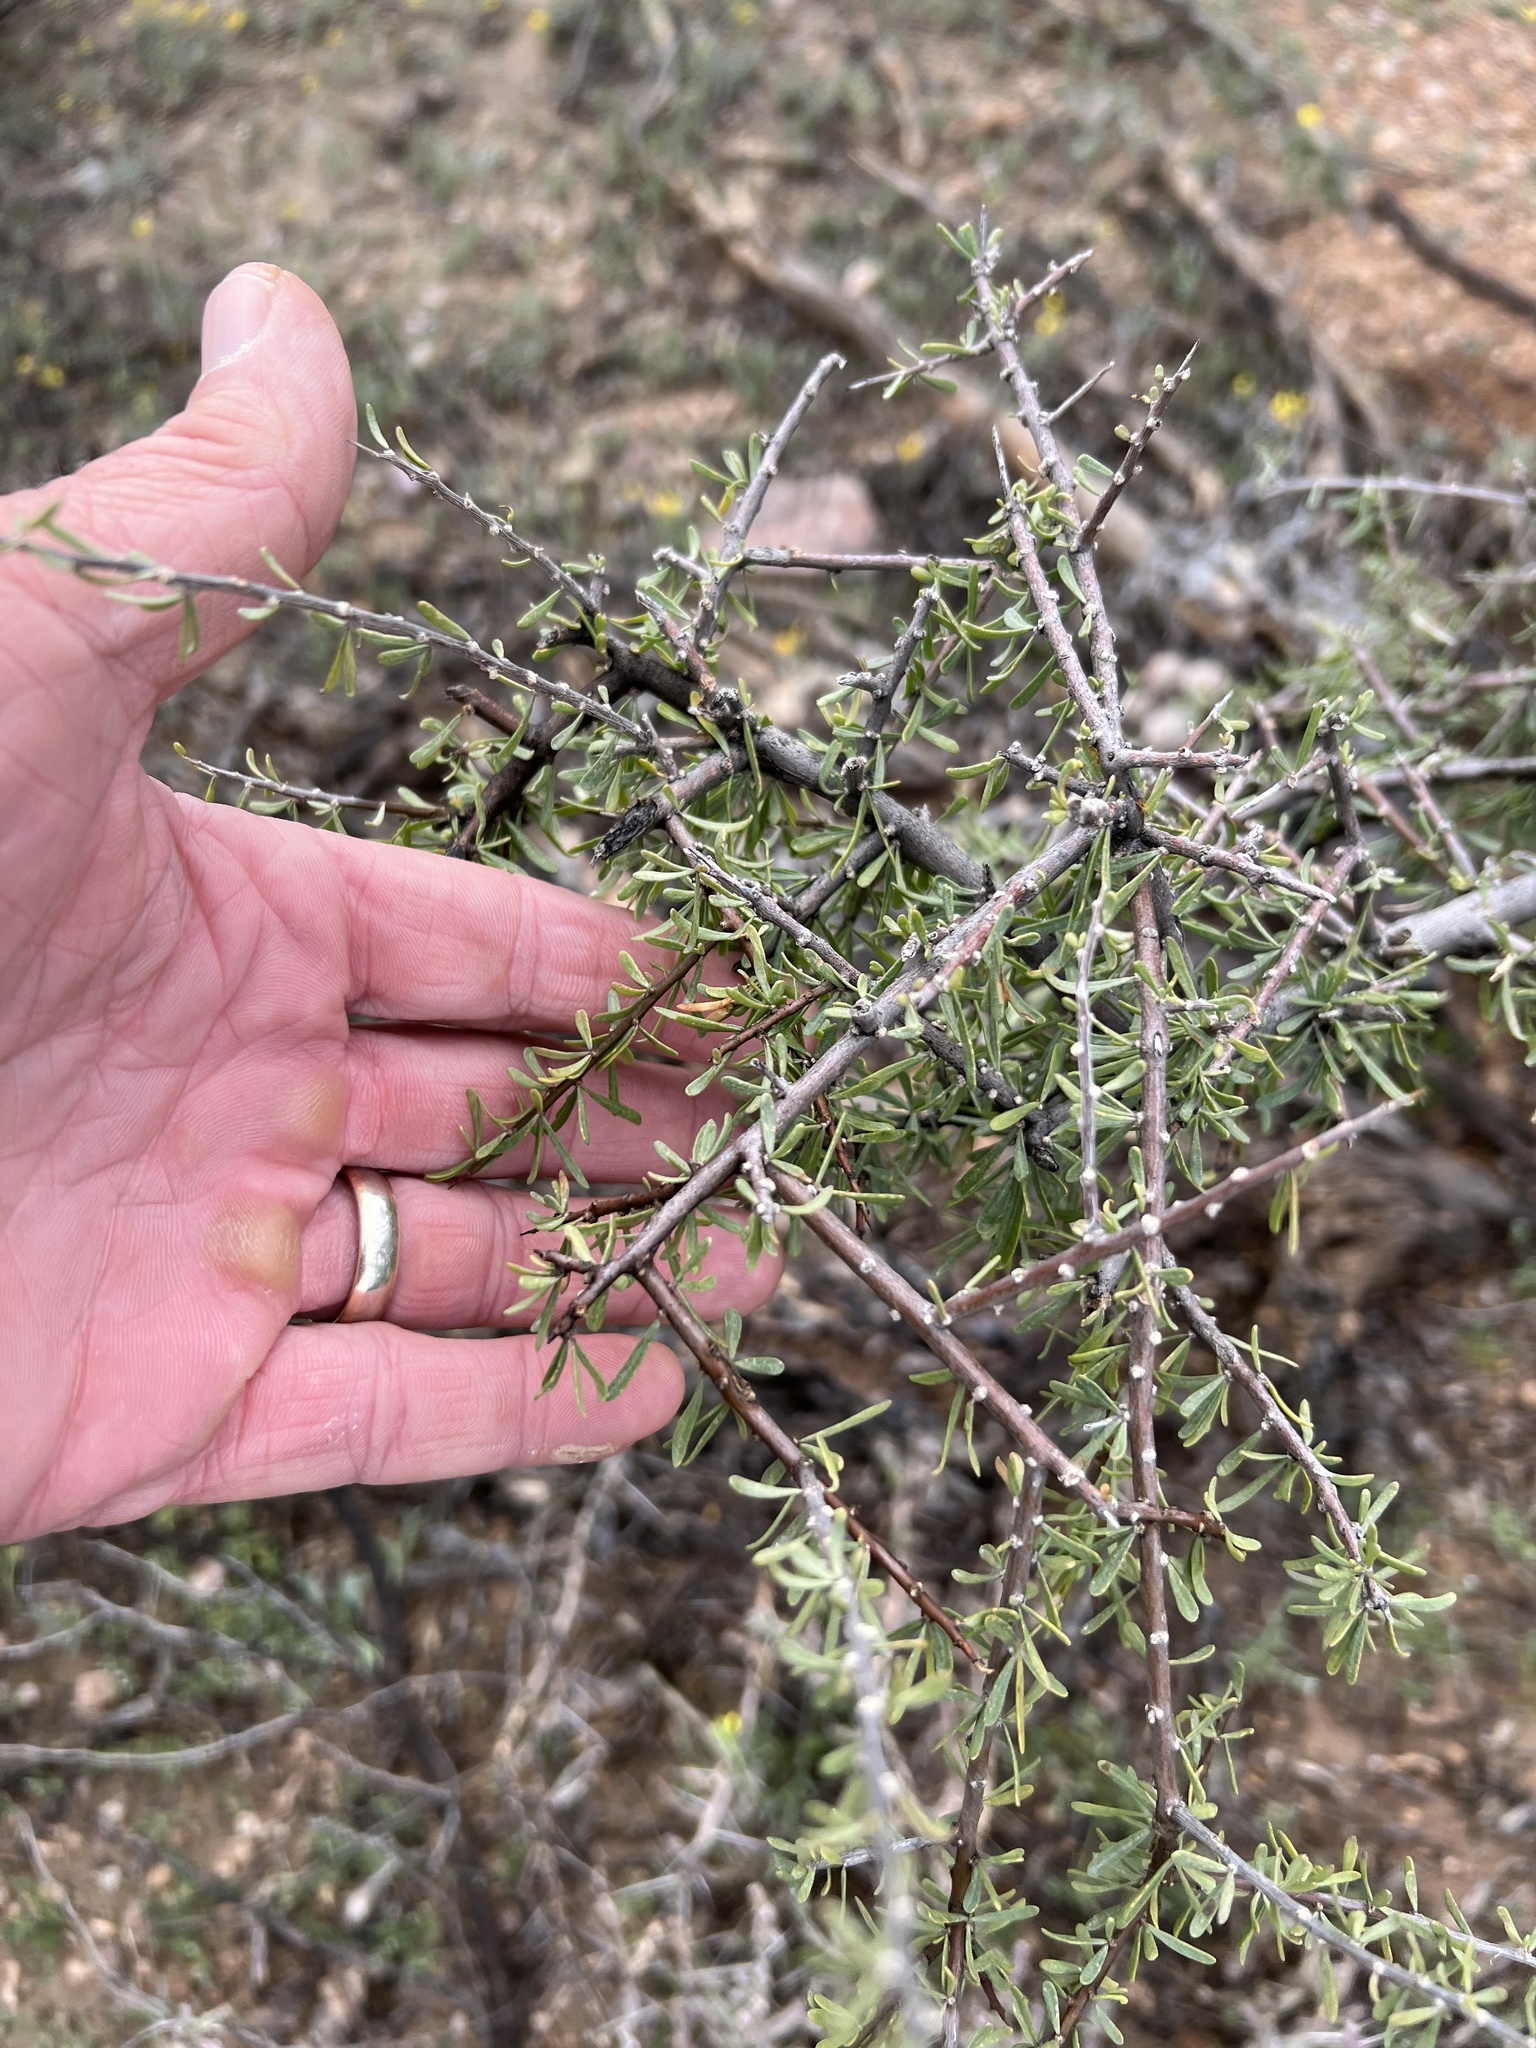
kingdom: Plantae
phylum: Tracheophyta
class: Magnoliopsida
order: Solanales
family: Solanaceae
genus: Lycium
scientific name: Lycium berlandieri
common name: Berlandier wolfberry
